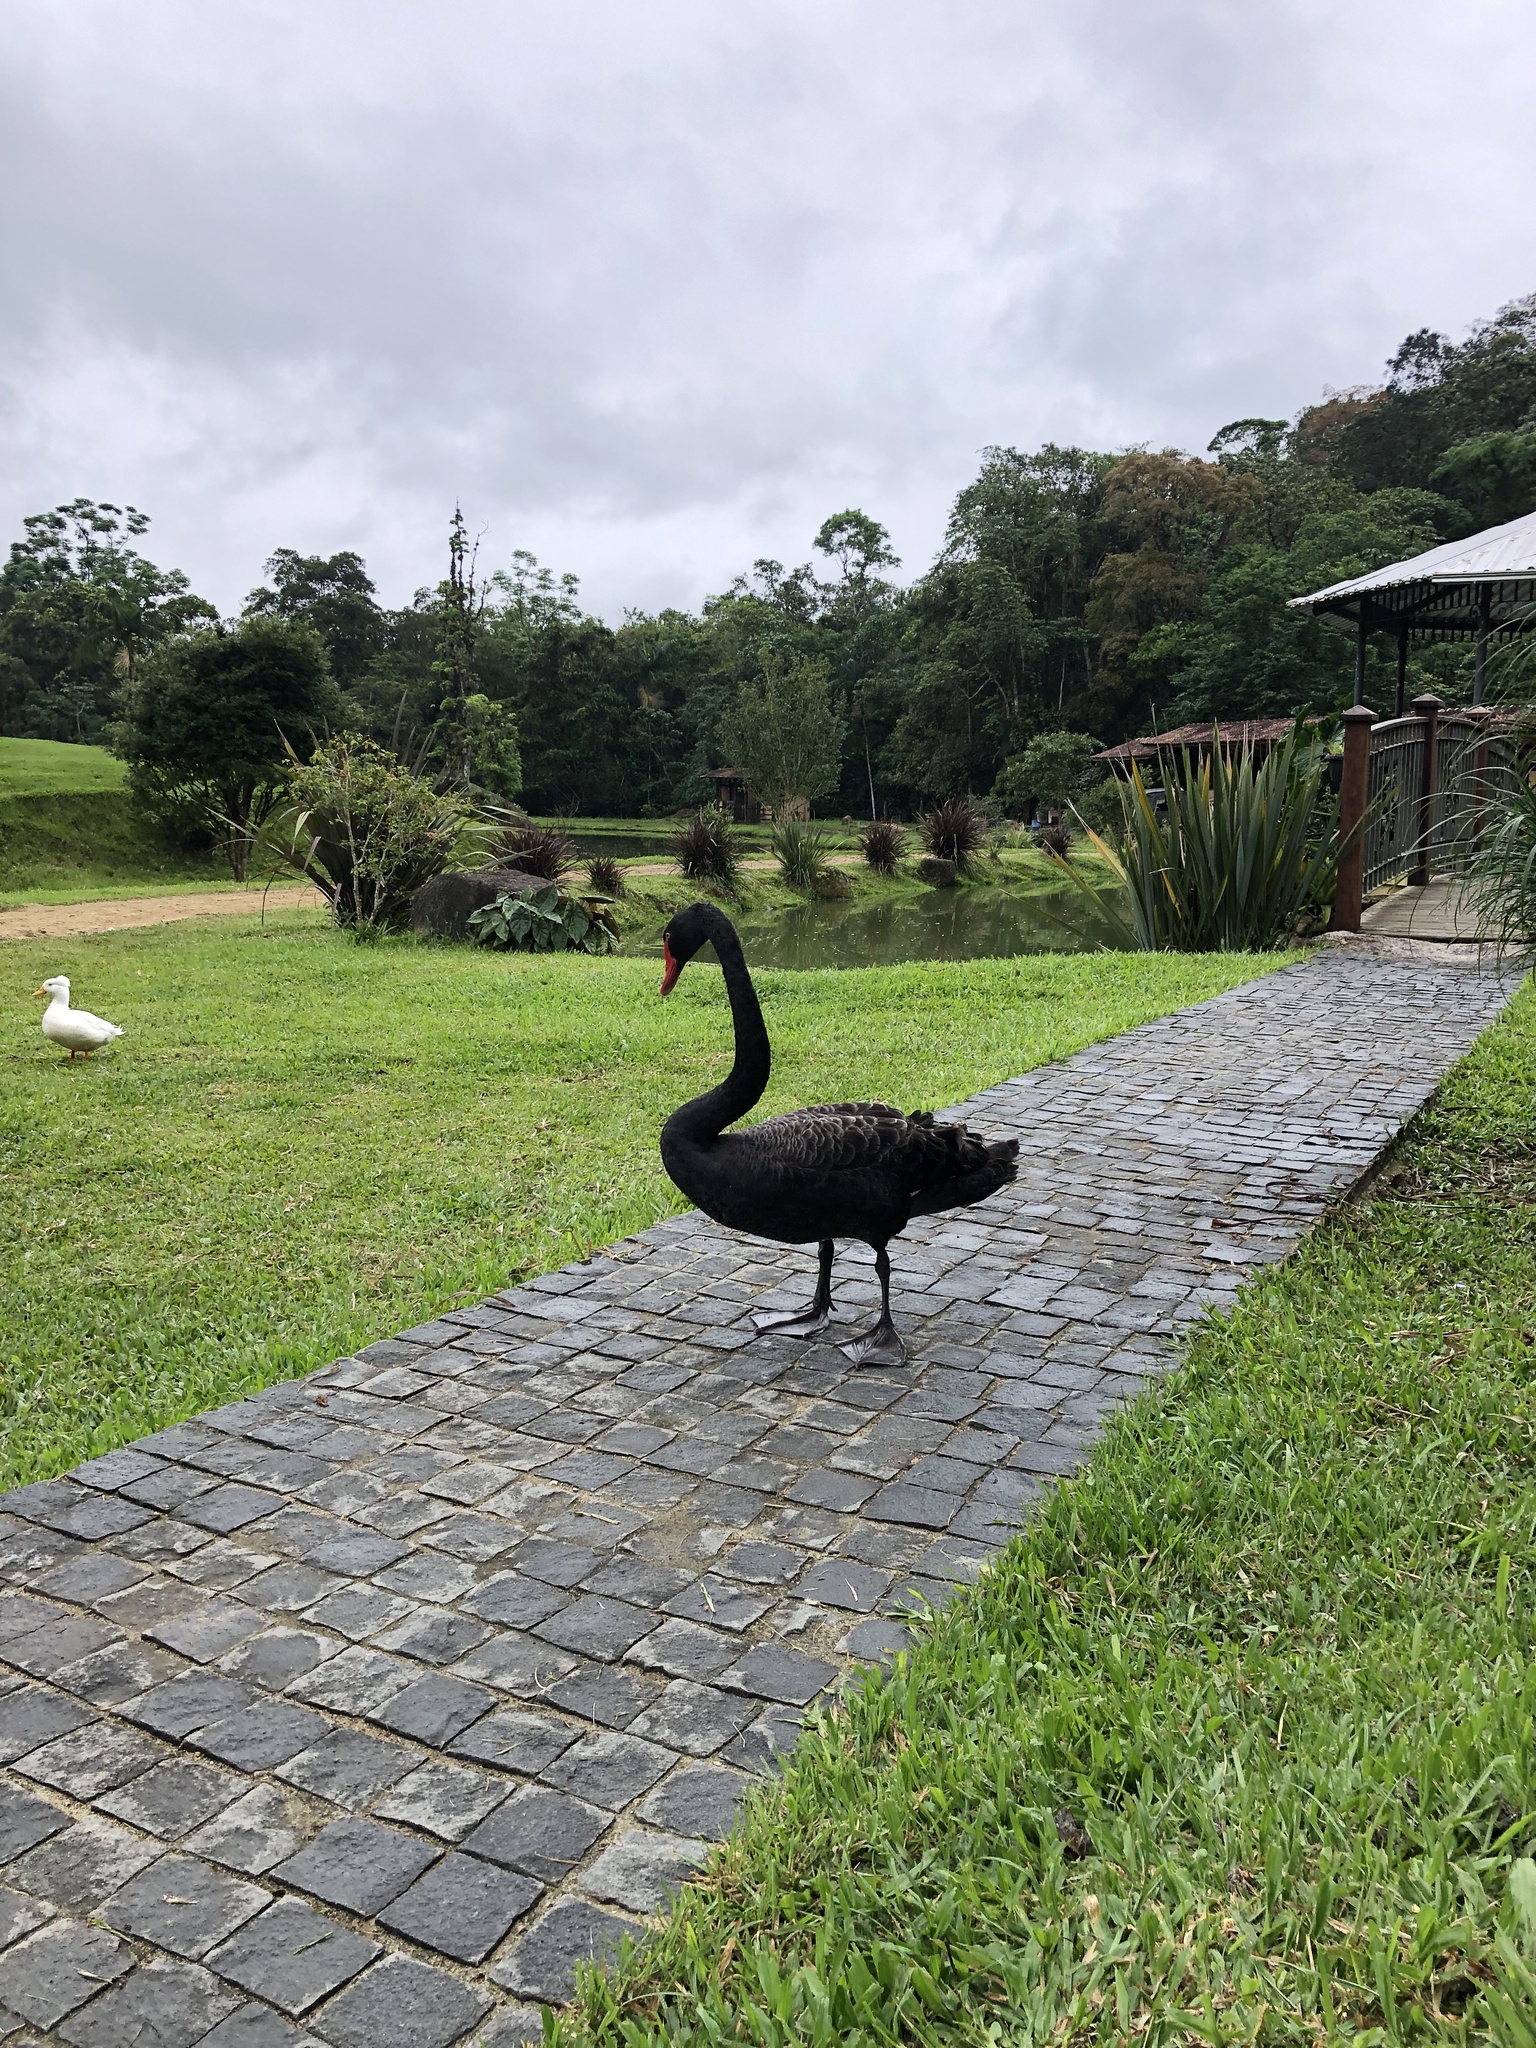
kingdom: Animalia
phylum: Chordata
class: Aves
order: Anseriformes
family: Anatidae
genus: Cygnus
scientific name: Cygnus atratus
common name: Black swan
